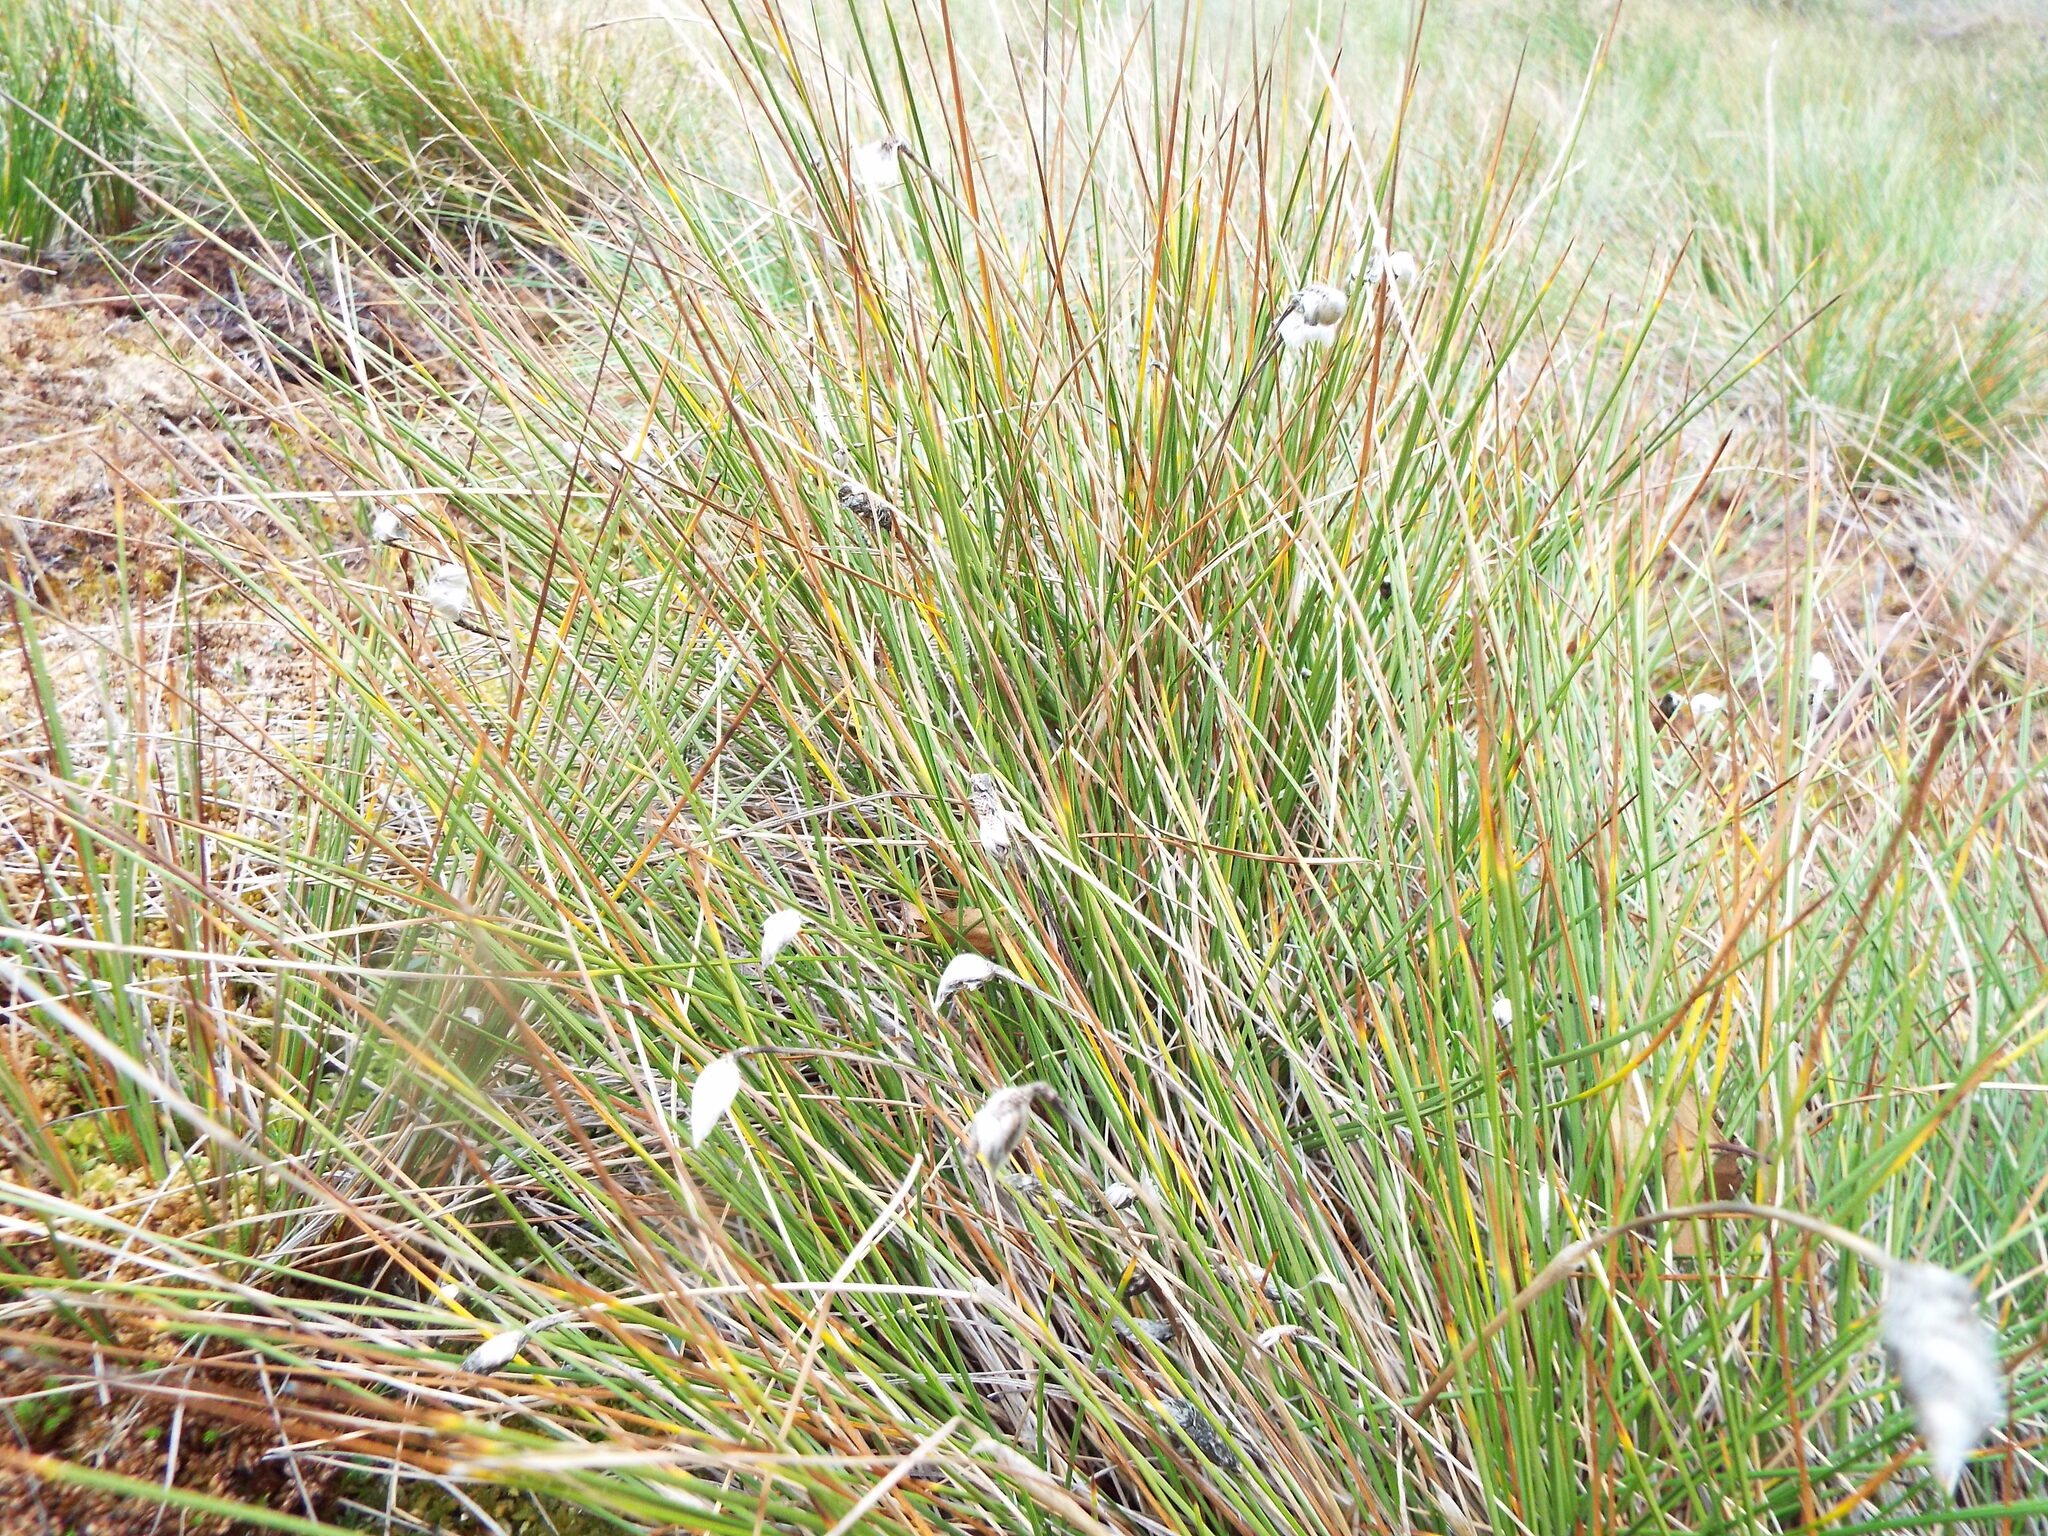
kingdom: Plantae
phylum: Tracheophyta
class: Liliopsida
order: Poales
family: Cyperaceae
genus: Eriophorum
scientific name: Eriophorum vaginatum
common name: Hare's-tail cottongrass
